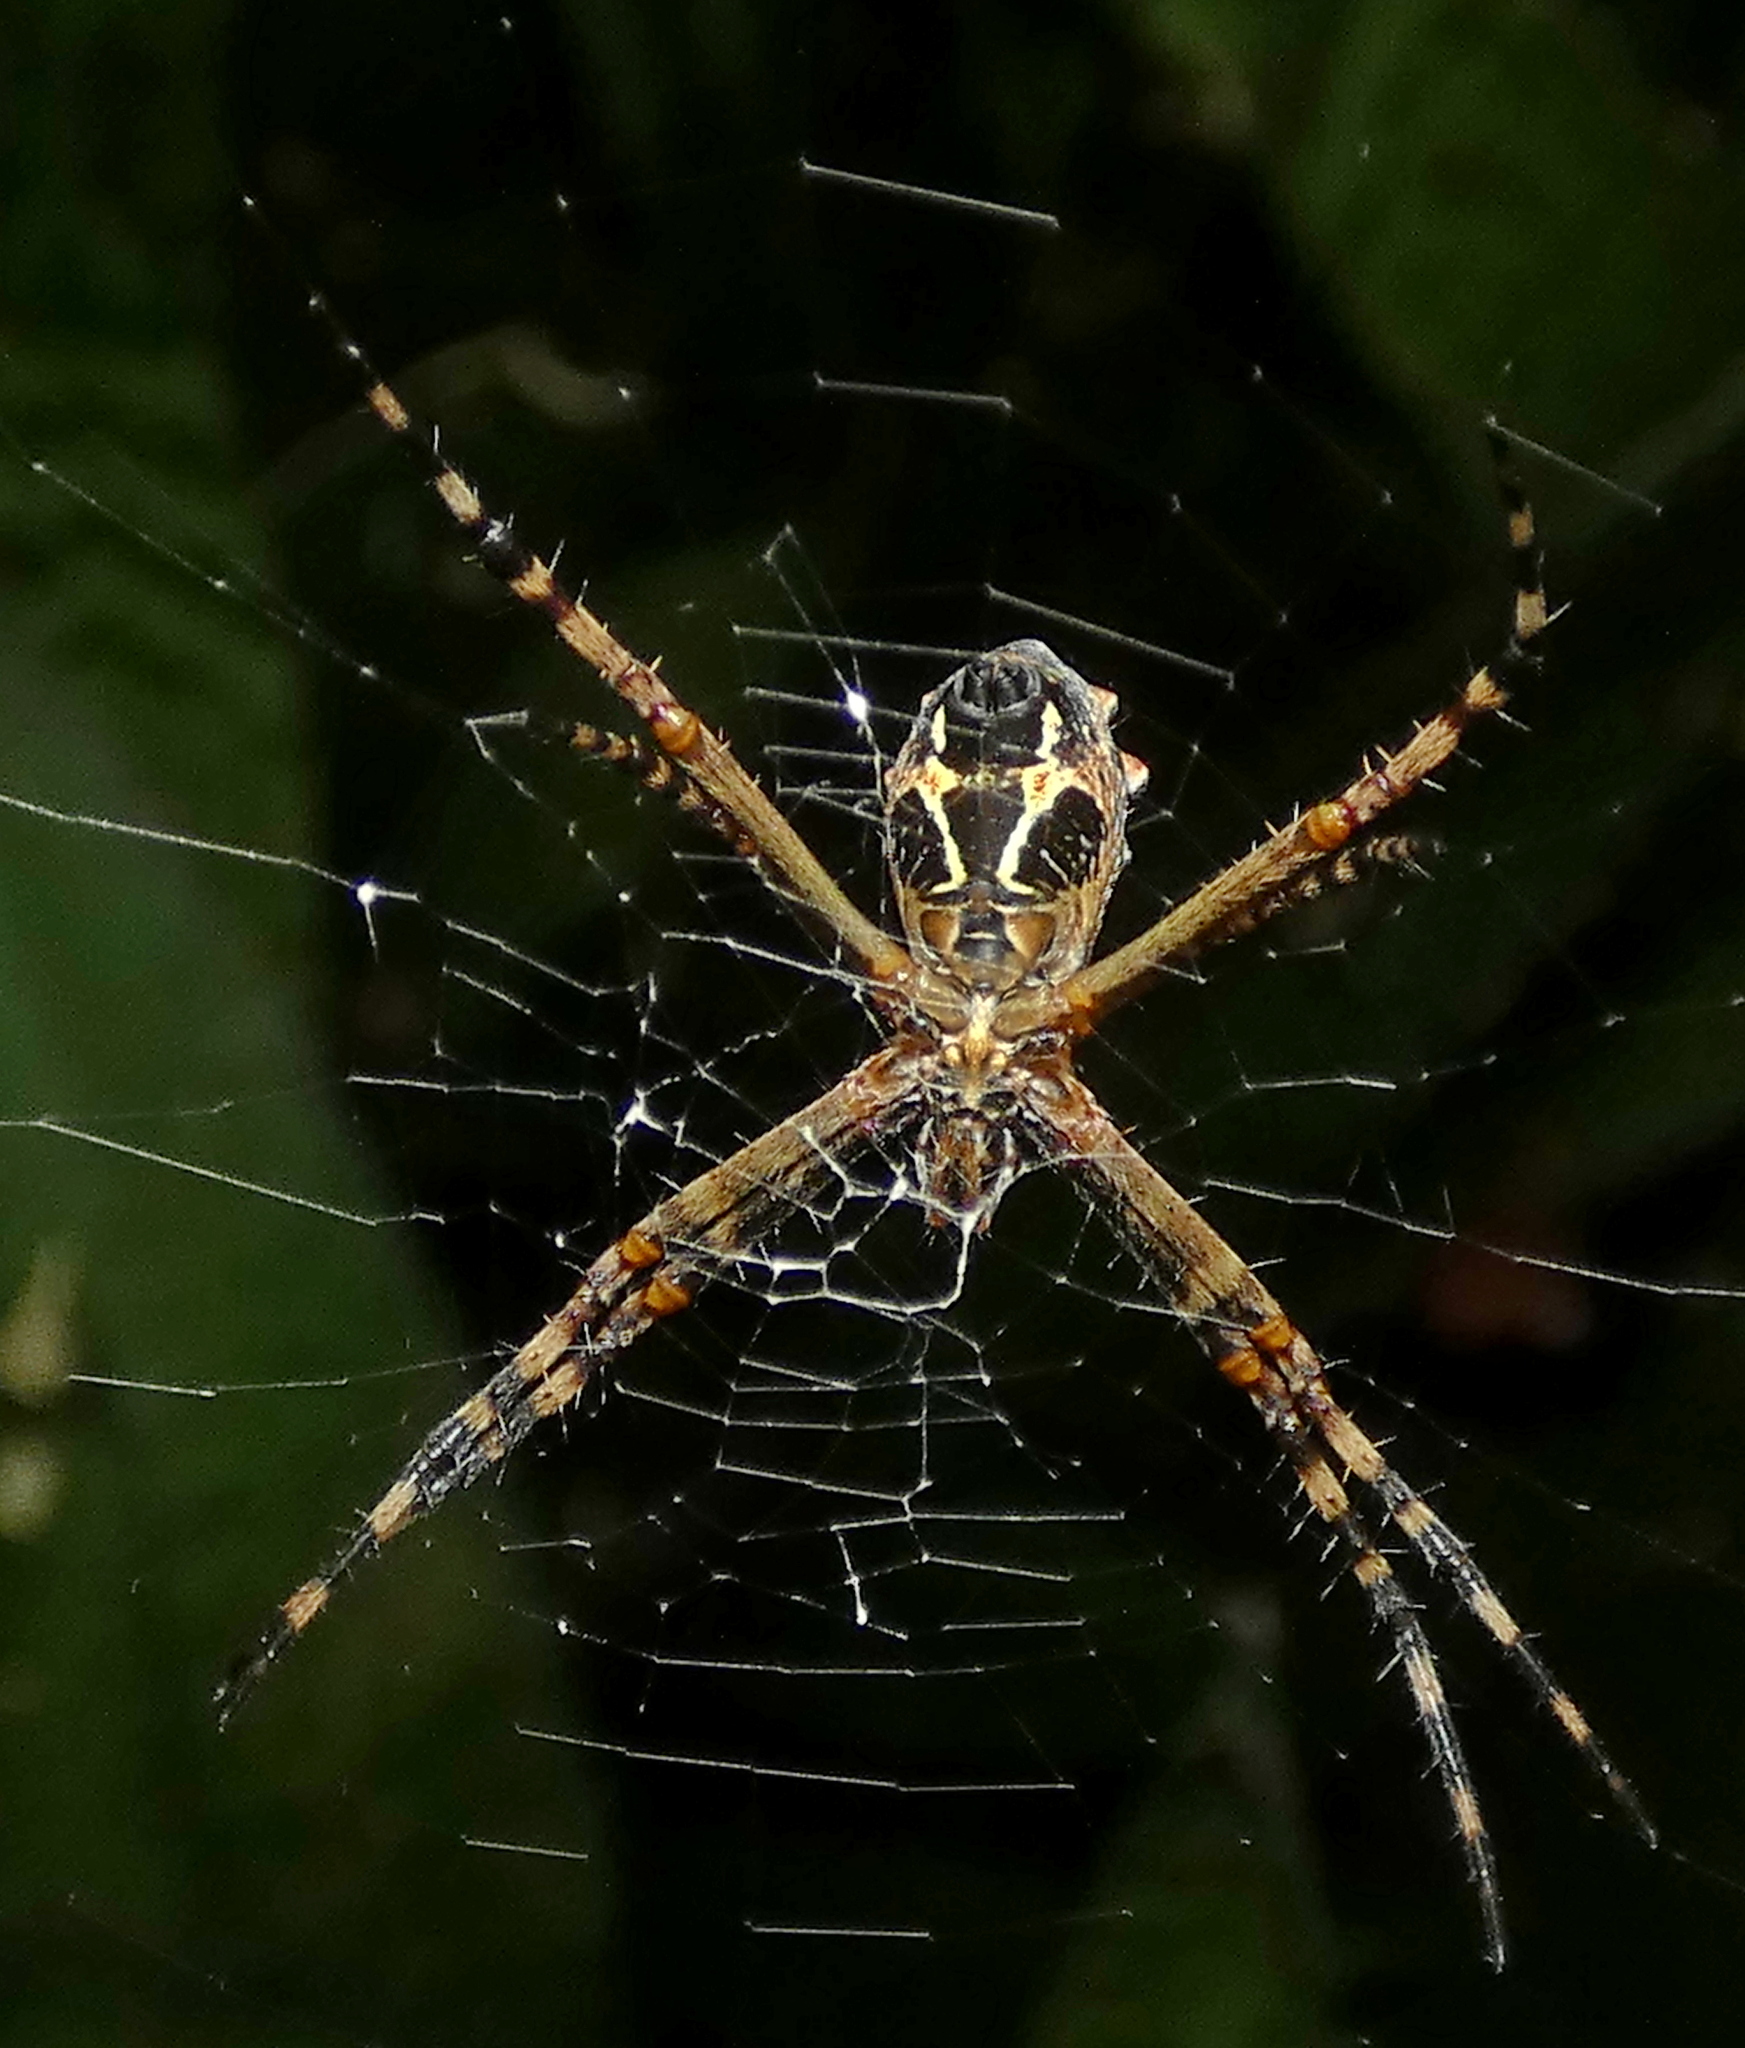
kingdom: Animalia
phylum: Arthropoda
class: Arachnida
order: Araneae
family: Araneidae
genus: Argiope
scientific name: Argiope argentata
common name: Orb weavers
